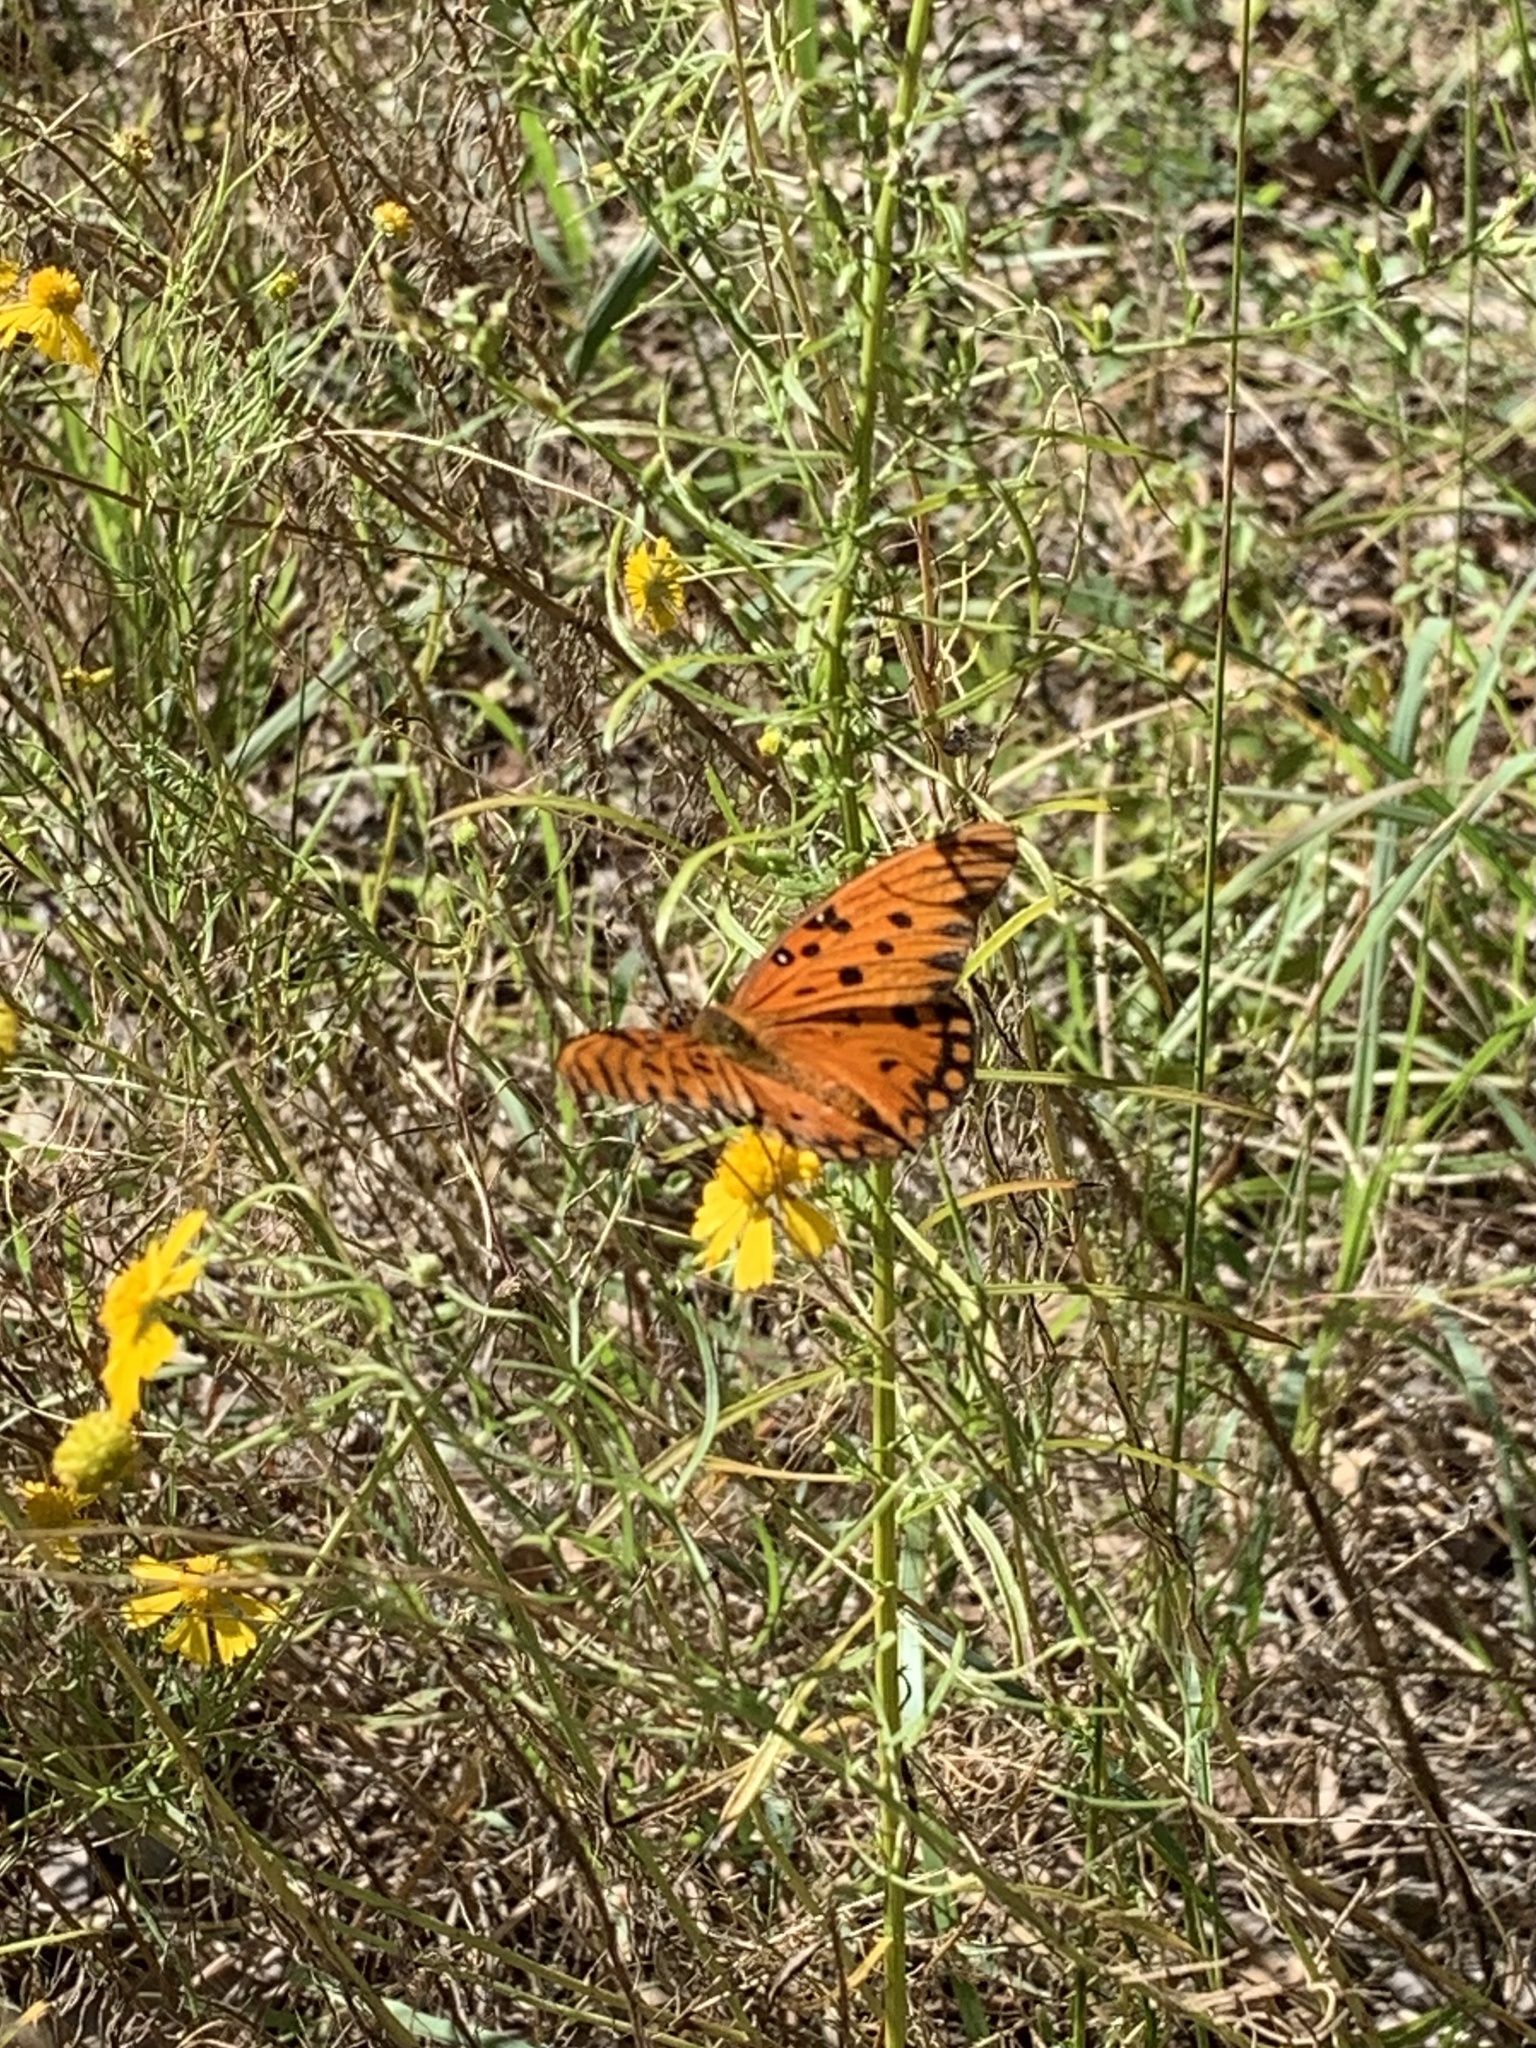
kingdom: Animalia
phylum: Arthropoda
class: Insecta
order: Lepidoptera
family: Nymphalidae
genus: Dione
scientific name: Dione vanillae
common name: Gulf fritillary
